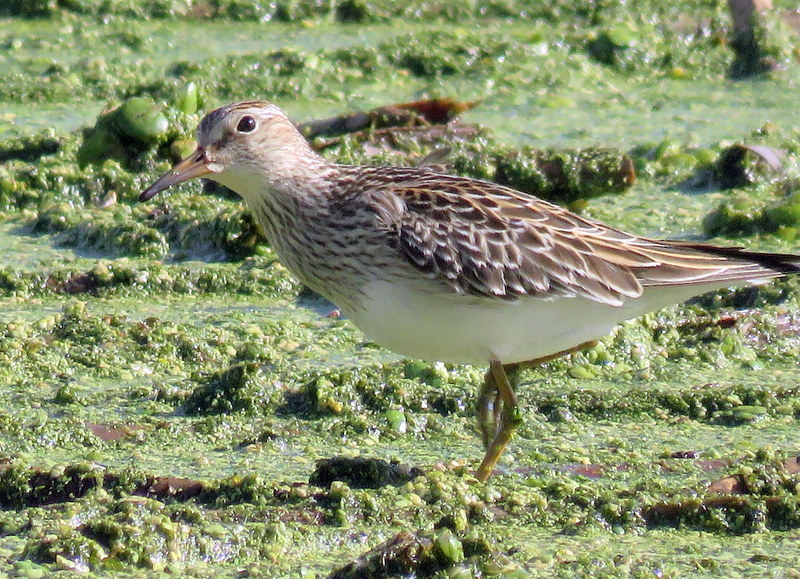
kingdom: Animalia
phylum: Chordata
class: Aves
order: Charadriiformes
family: Scolopacidae
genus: Calidris
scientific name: Calidris melanotos
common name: Pectoral sandpiper
